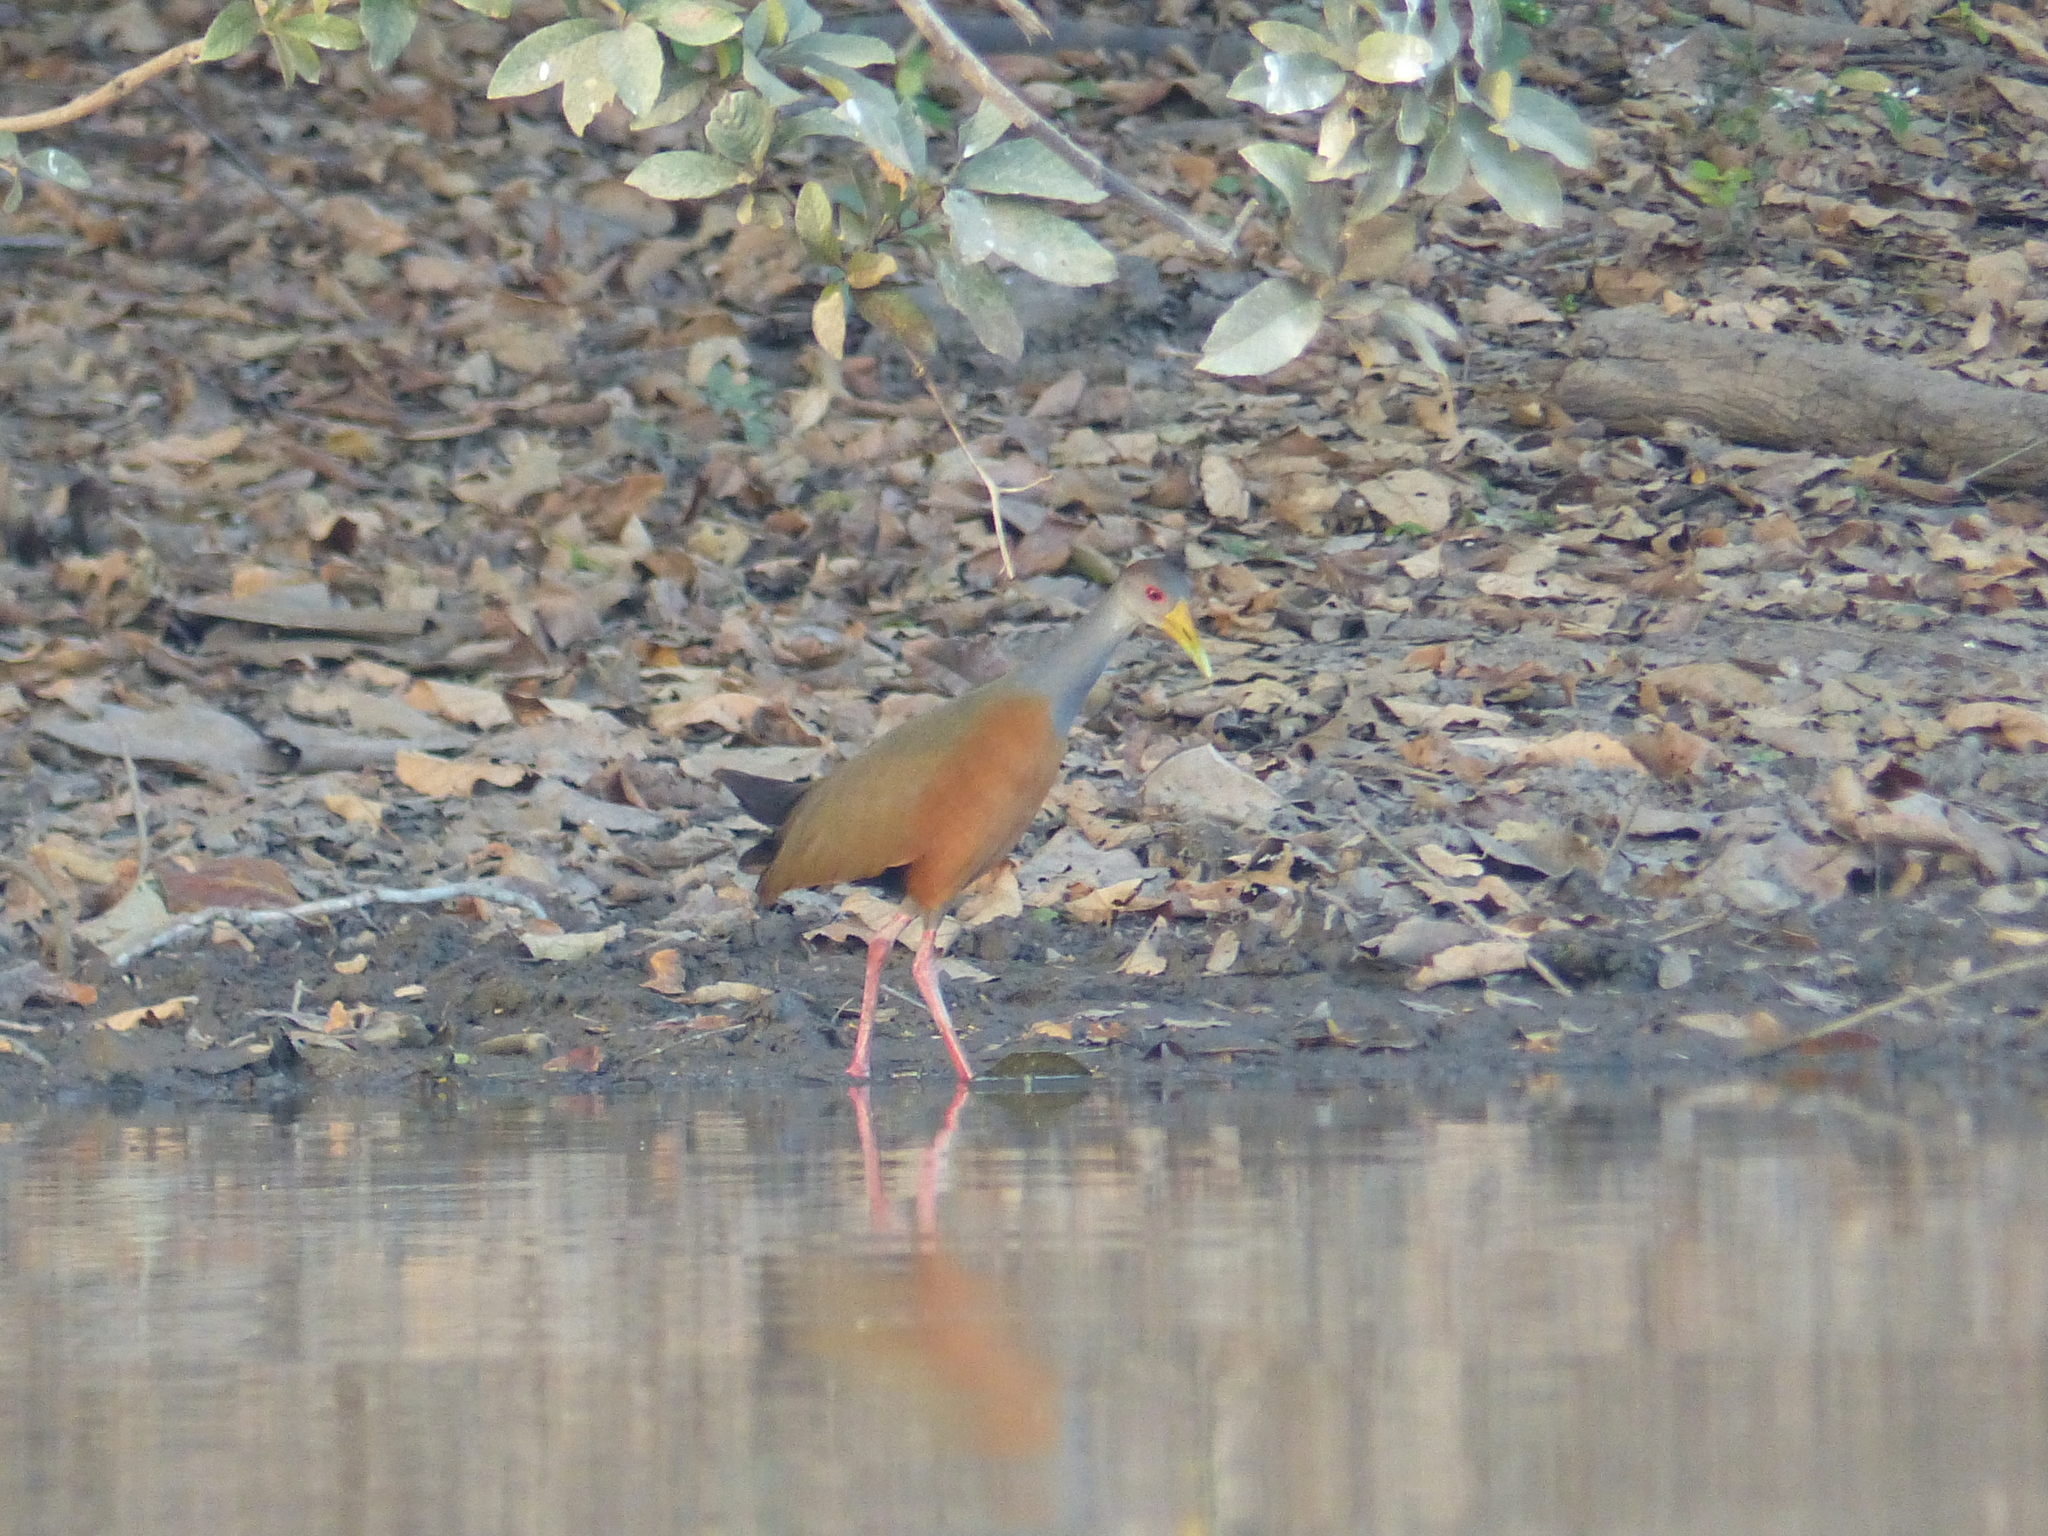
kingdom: Animalia
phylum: Chordata
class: Aves
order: Gruiformes
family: Rallidae
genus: Aramides
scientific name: Aramides cajanea
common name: Gray-necked wood-rail
